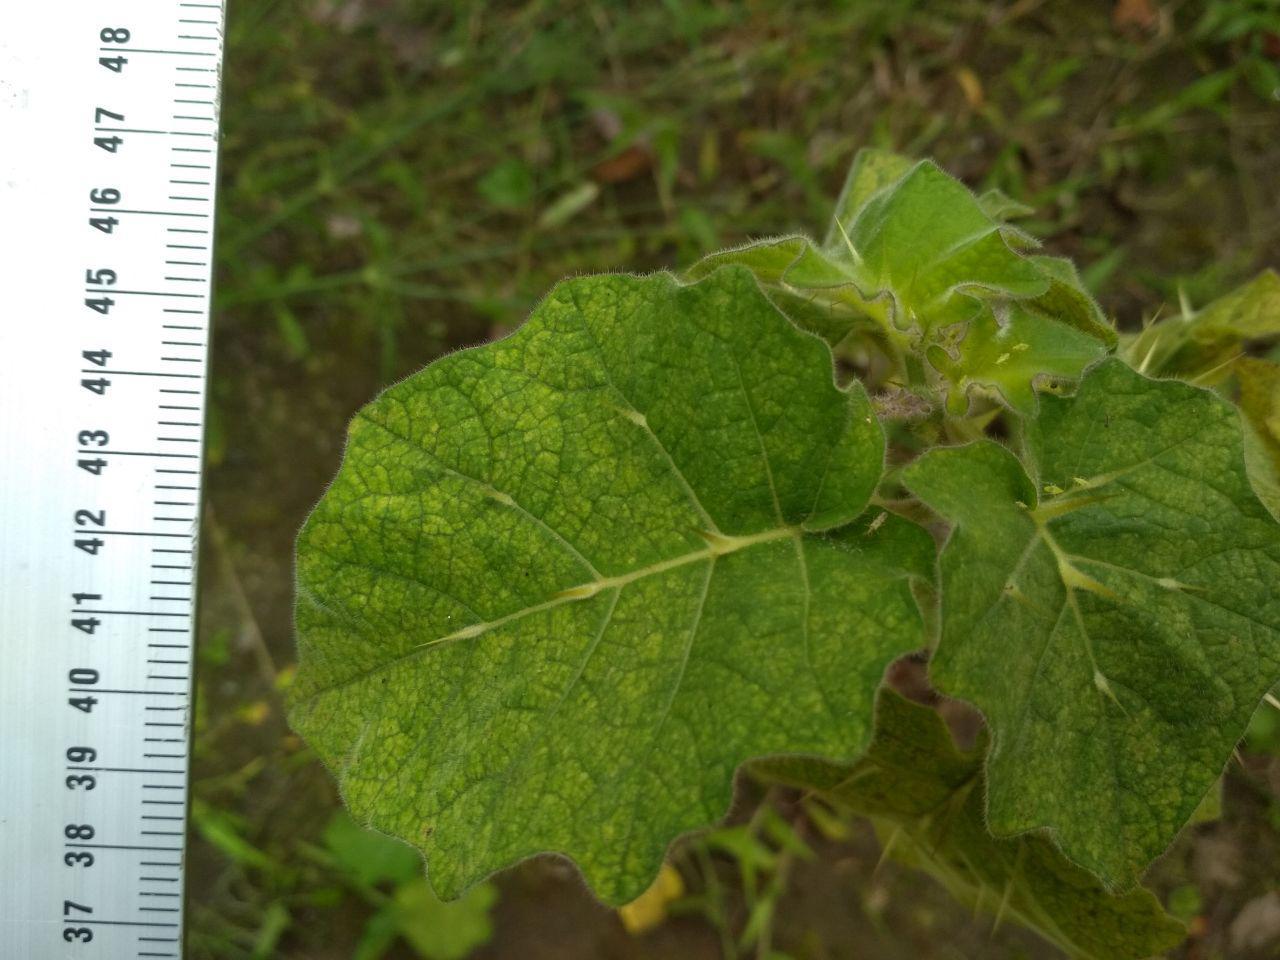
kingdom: Plantae
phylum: Tracheophyta
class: Magnoliopsida
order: Solanales
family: Solanaceae
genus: Solanum
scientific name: Solanum viarum
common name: Tropical soda apple
